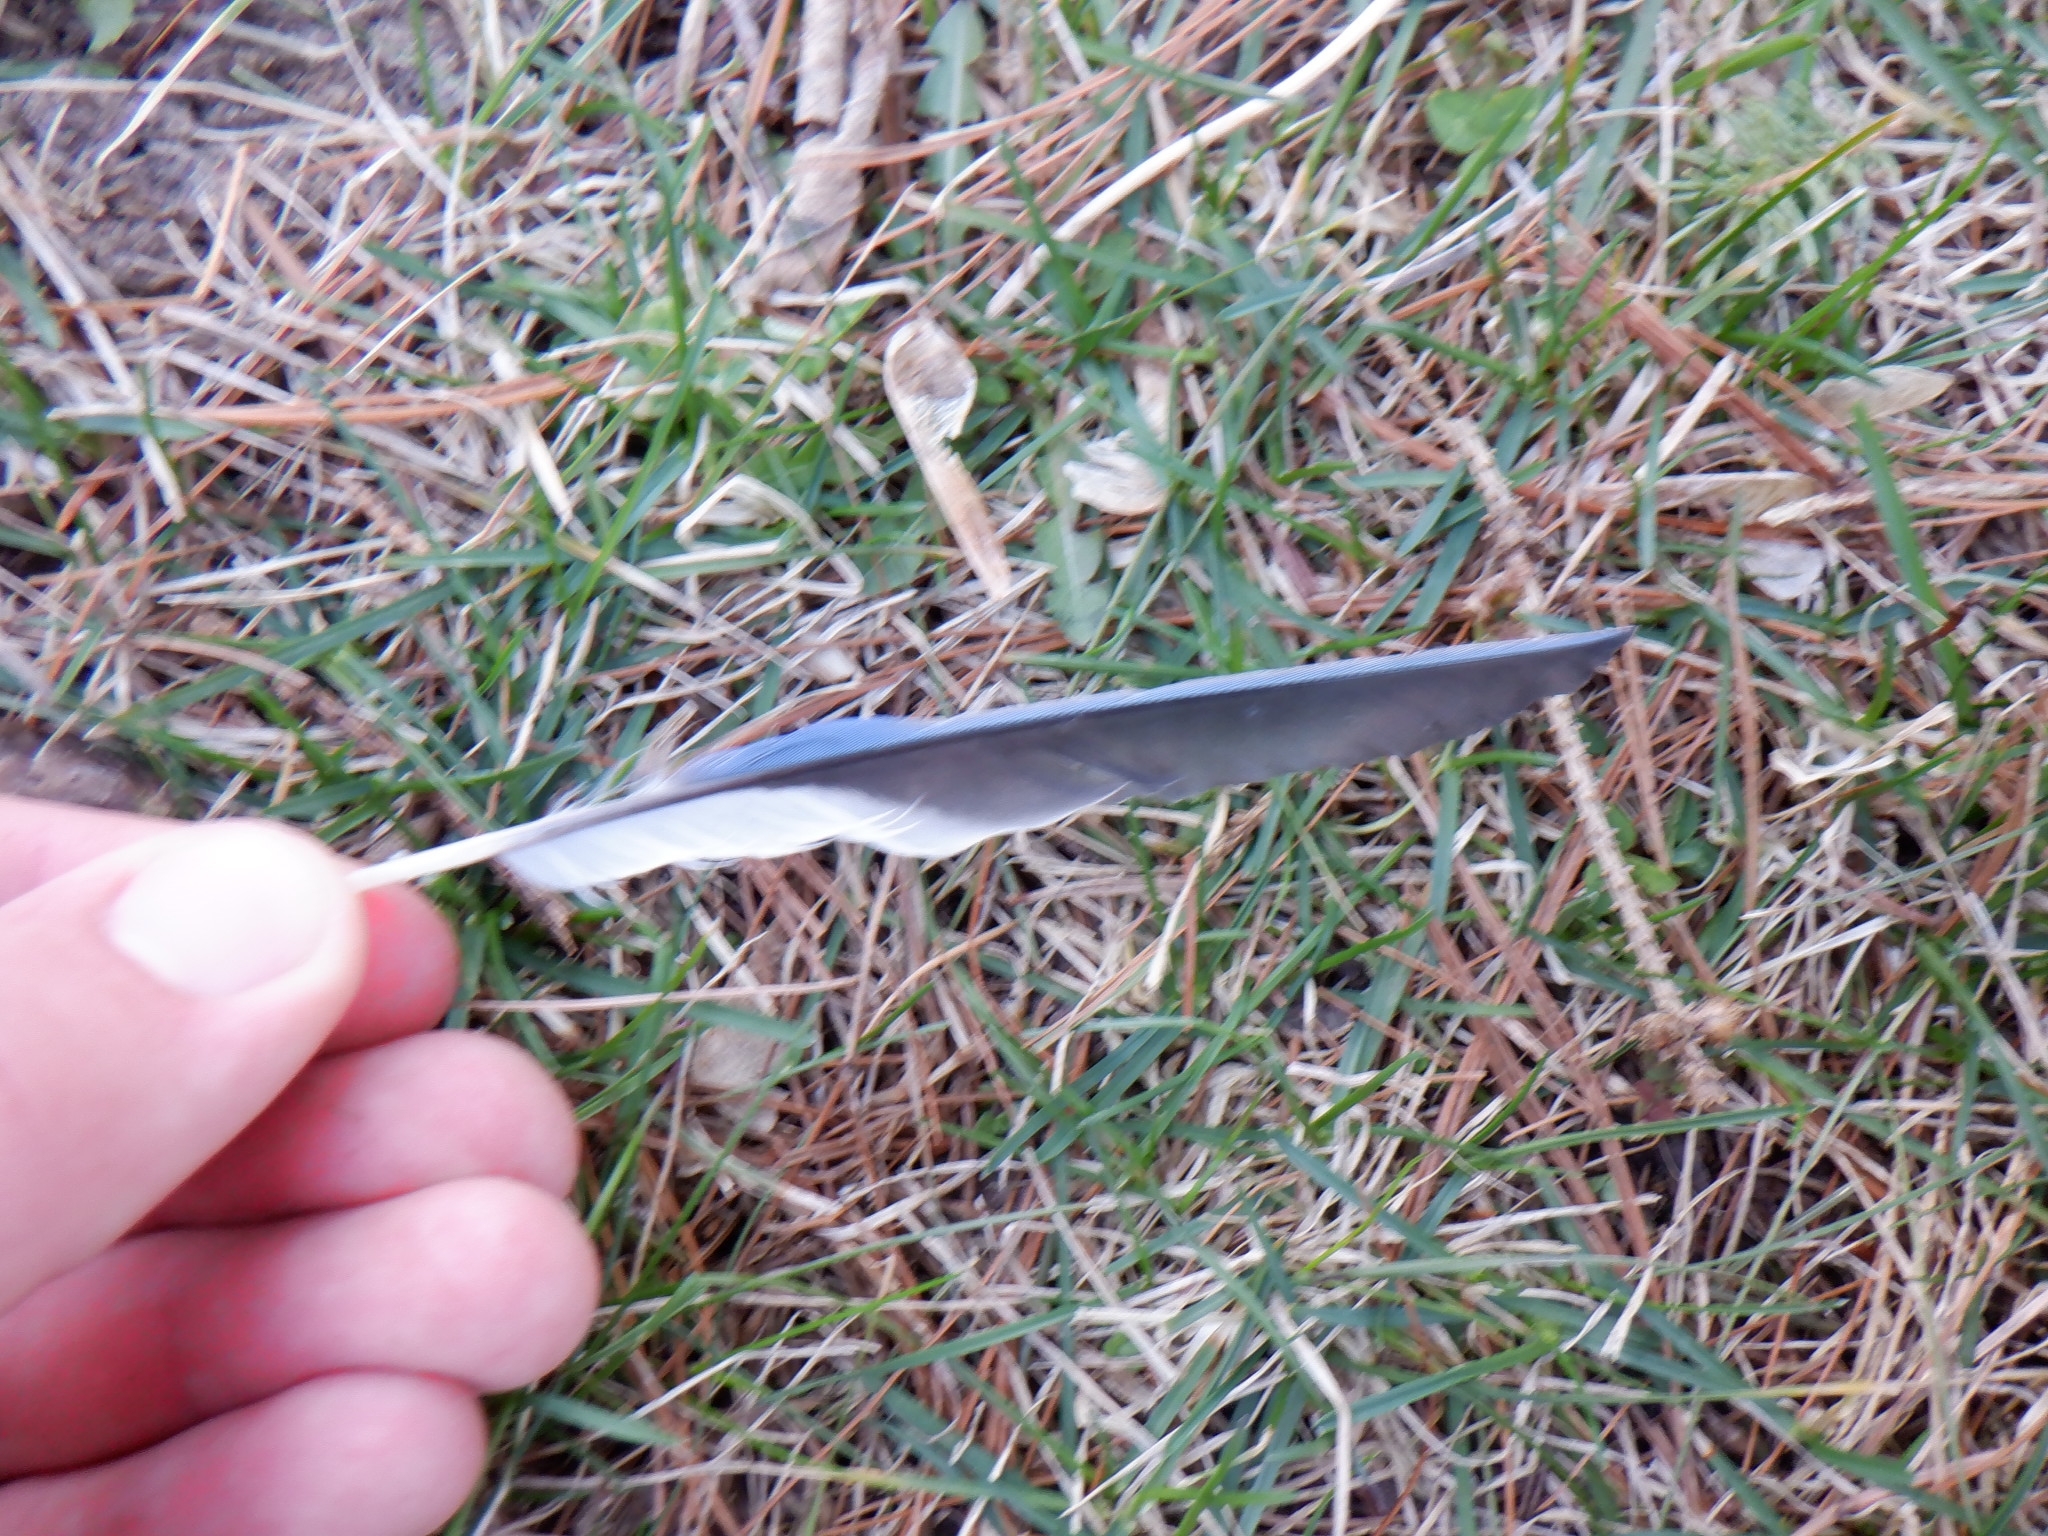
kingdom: Animalia
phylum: Chordata
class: Aves
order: Passeriformes
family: Corvidae
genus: Cyanocitta
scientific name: Cyanocitta cristata
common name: Blue jay
